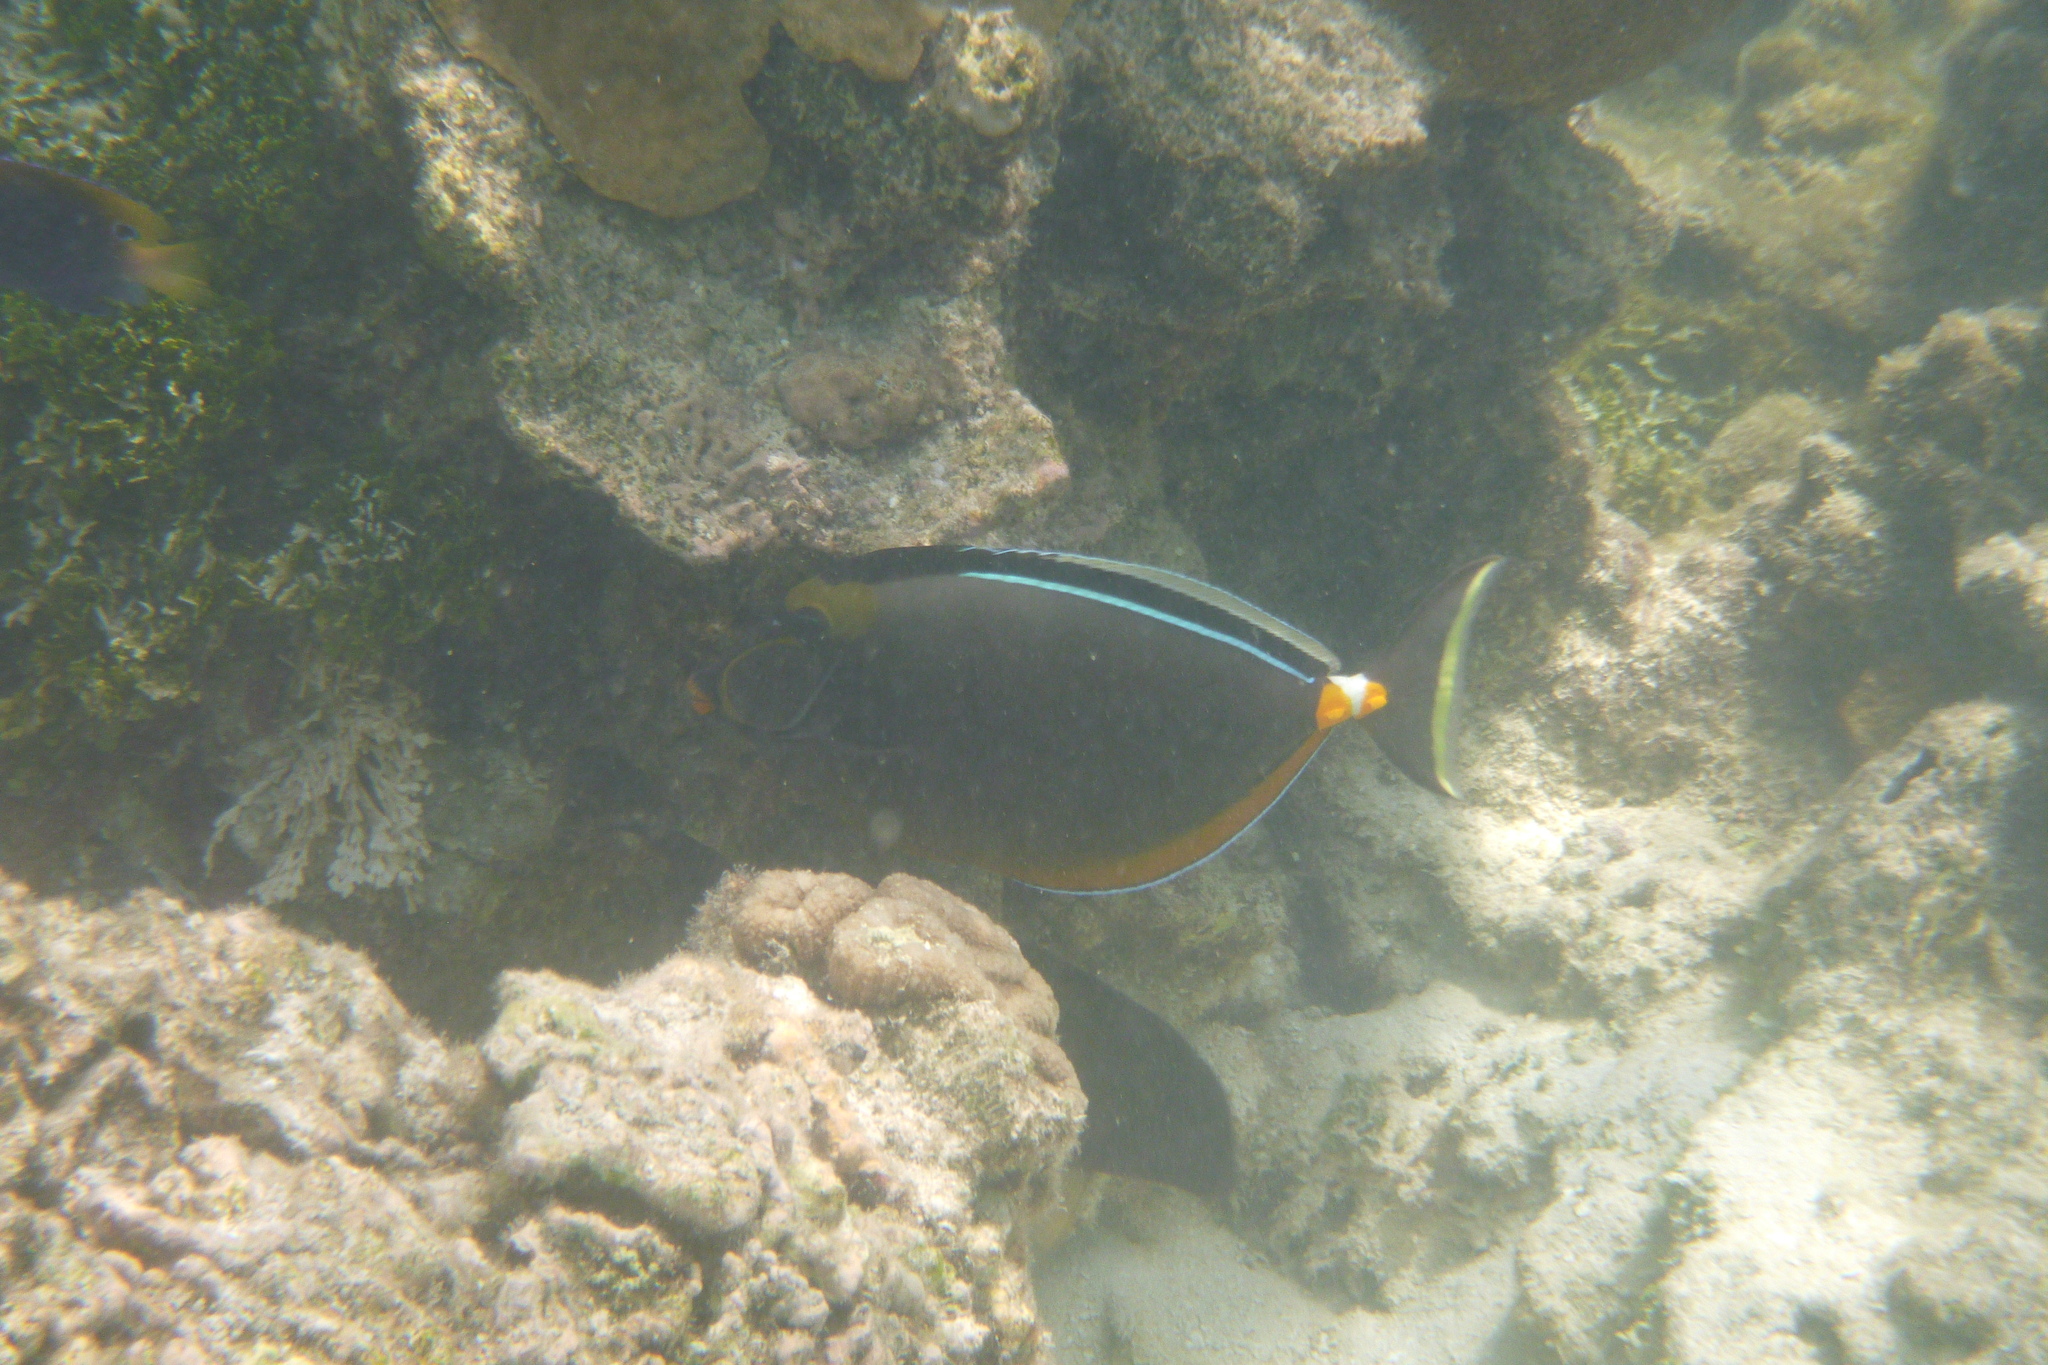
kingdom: Animalia
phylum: Chordata
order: Perciformes
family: Acanthuridae
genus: Naso
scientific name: Naso lituratus
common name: Orangespine unicornfish
